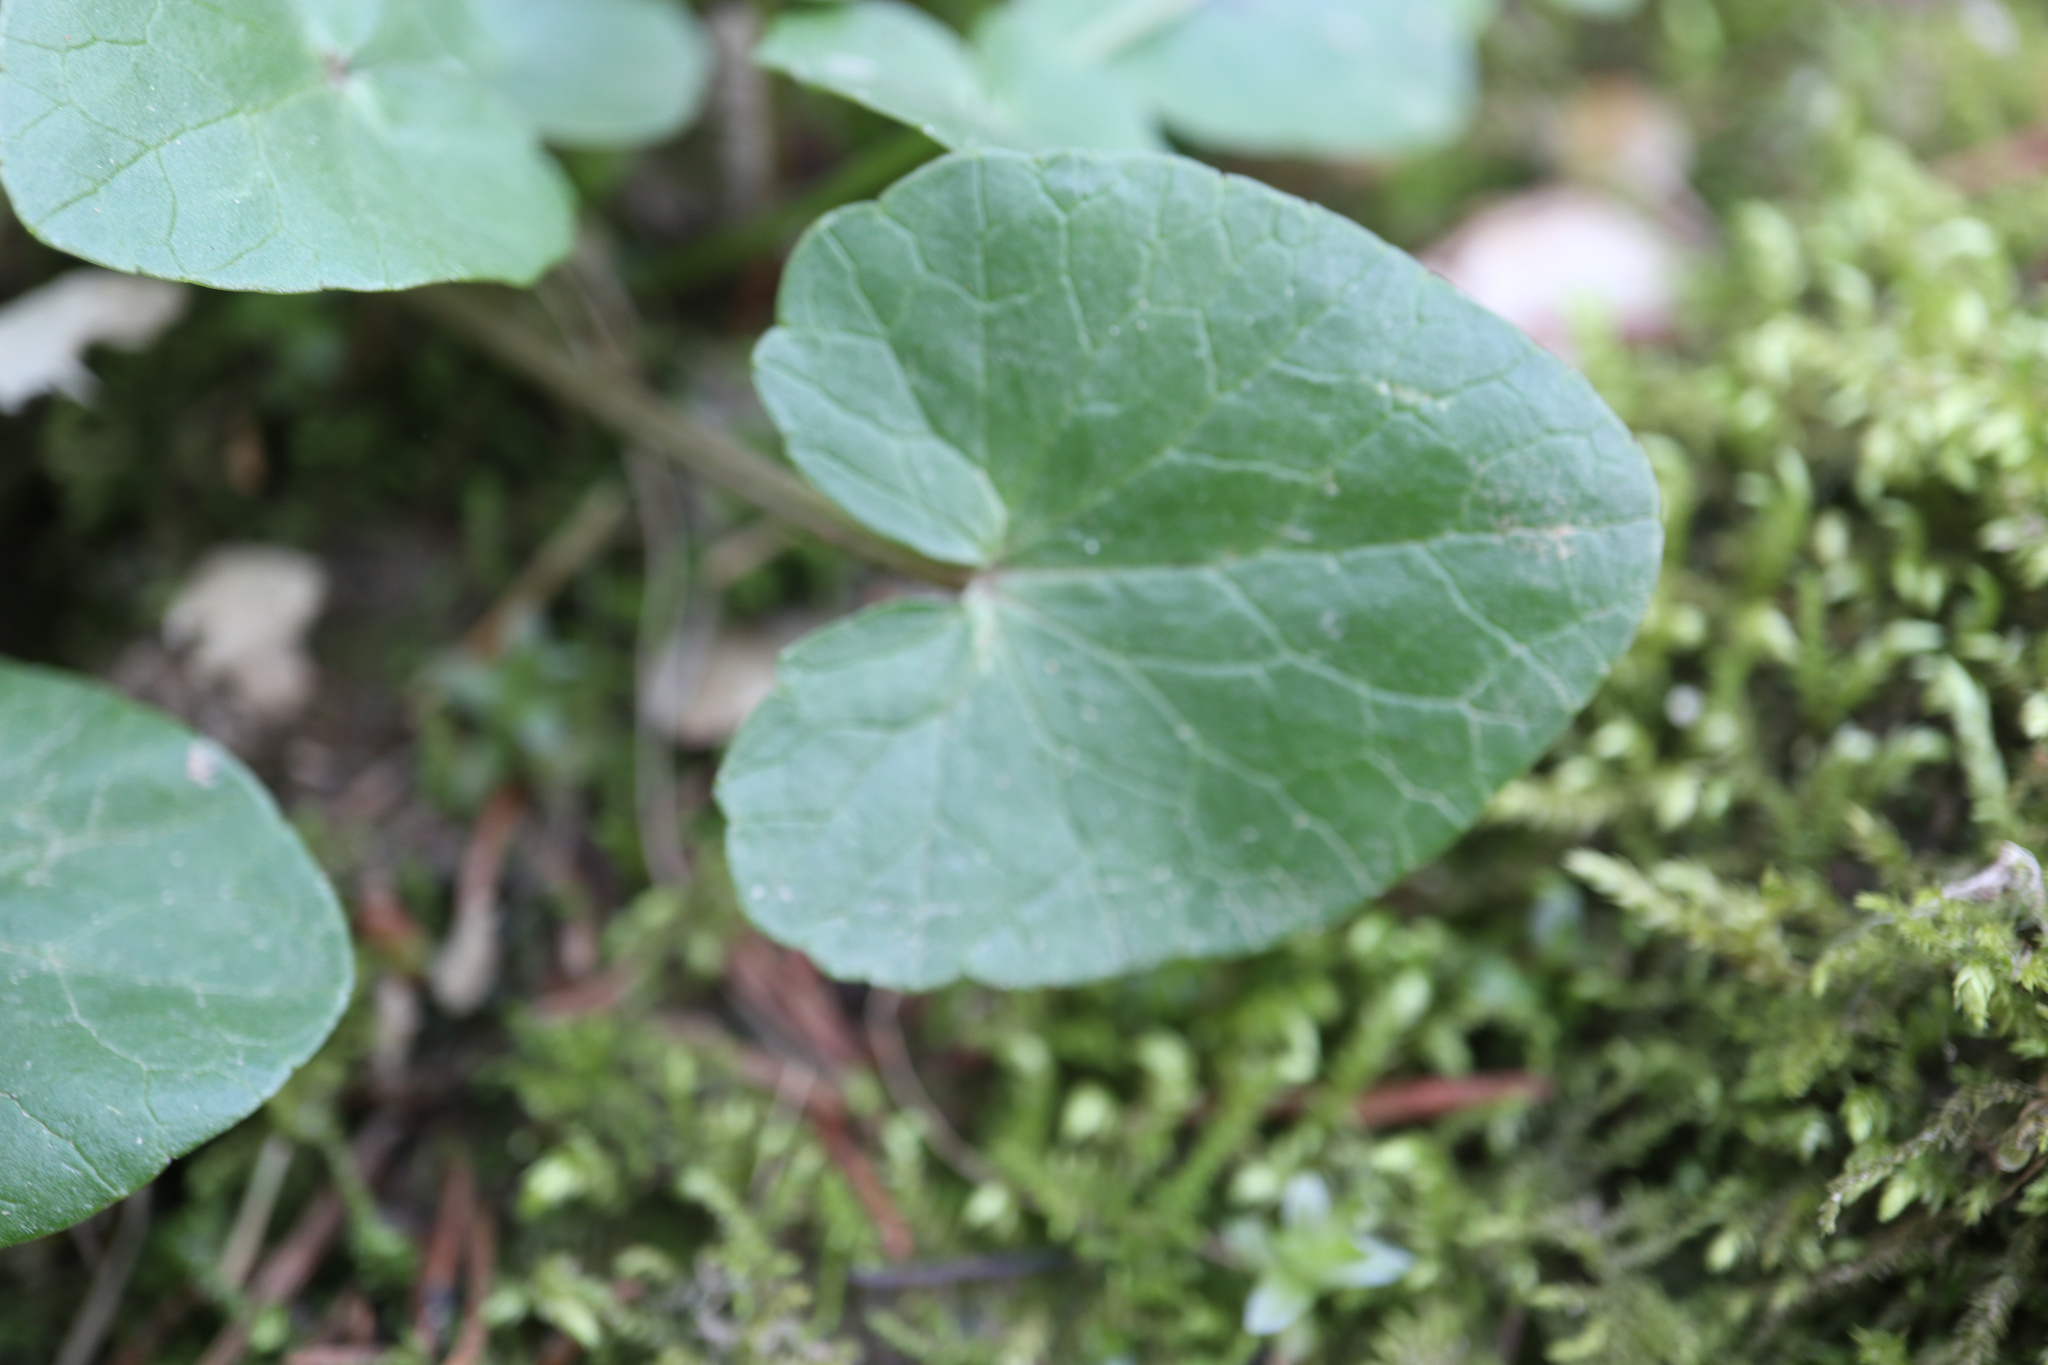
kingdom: Plantae
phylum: Tracheophyta
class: Magnoliopsida
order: Ranunculales
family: Ranunculaceae
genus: Ficaria
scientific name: Ficaria verna
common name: Lesser celandine
